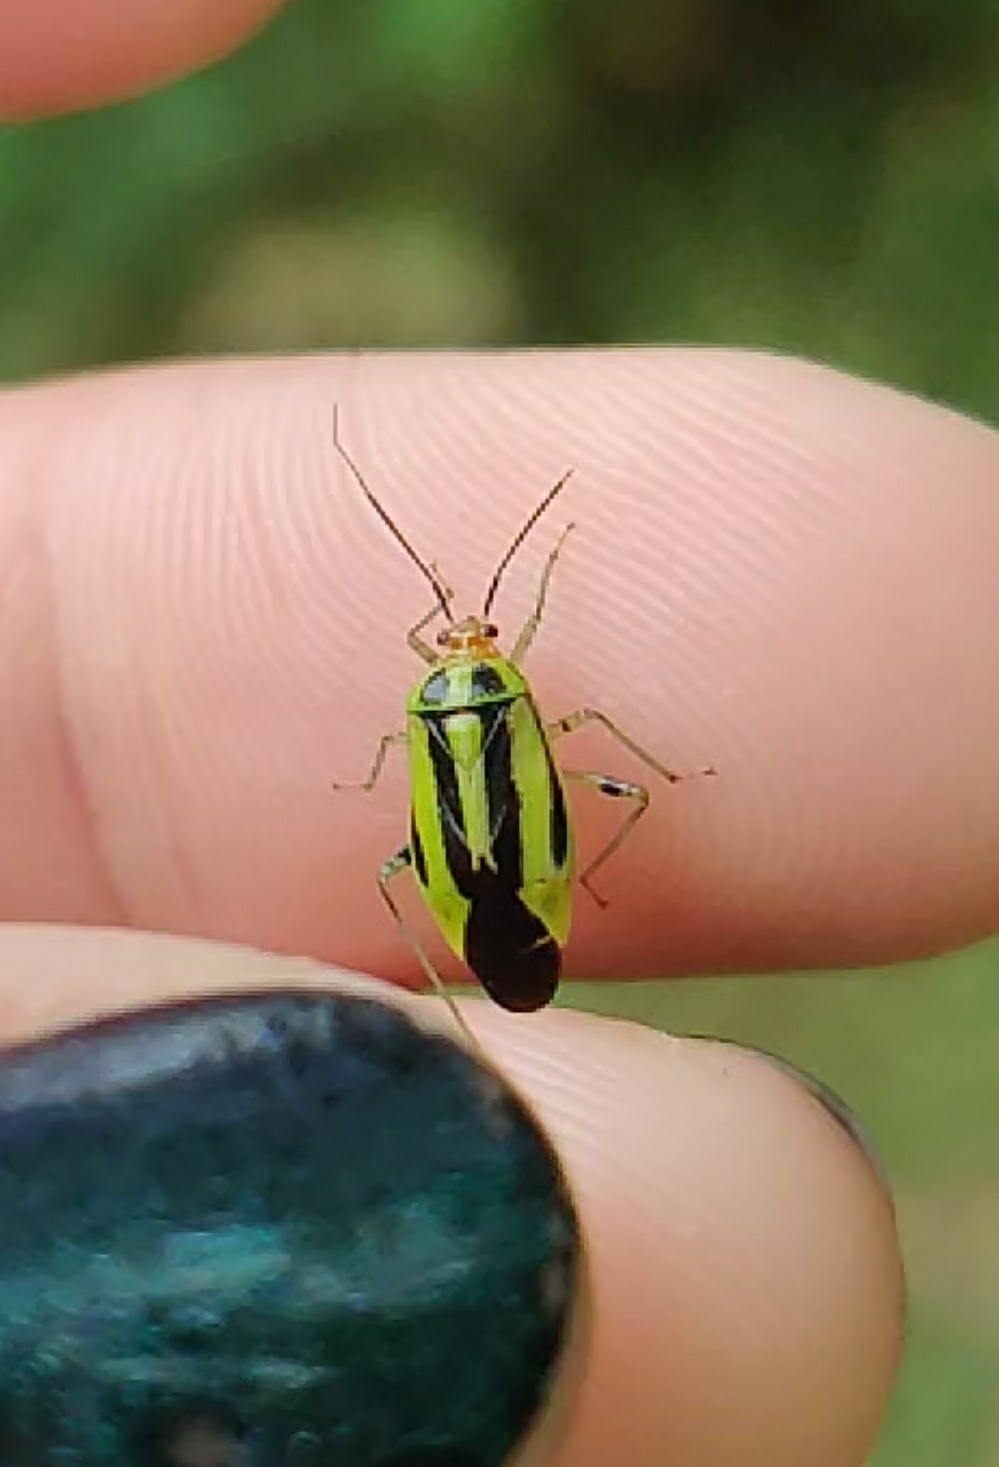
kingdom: Animalia
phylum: Arthropoda
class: Insecta
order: Hemiptera
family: Miridae
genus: Poecilocapsus
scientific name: Poecilocapsus lineatus
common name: Four-lined plant bug
